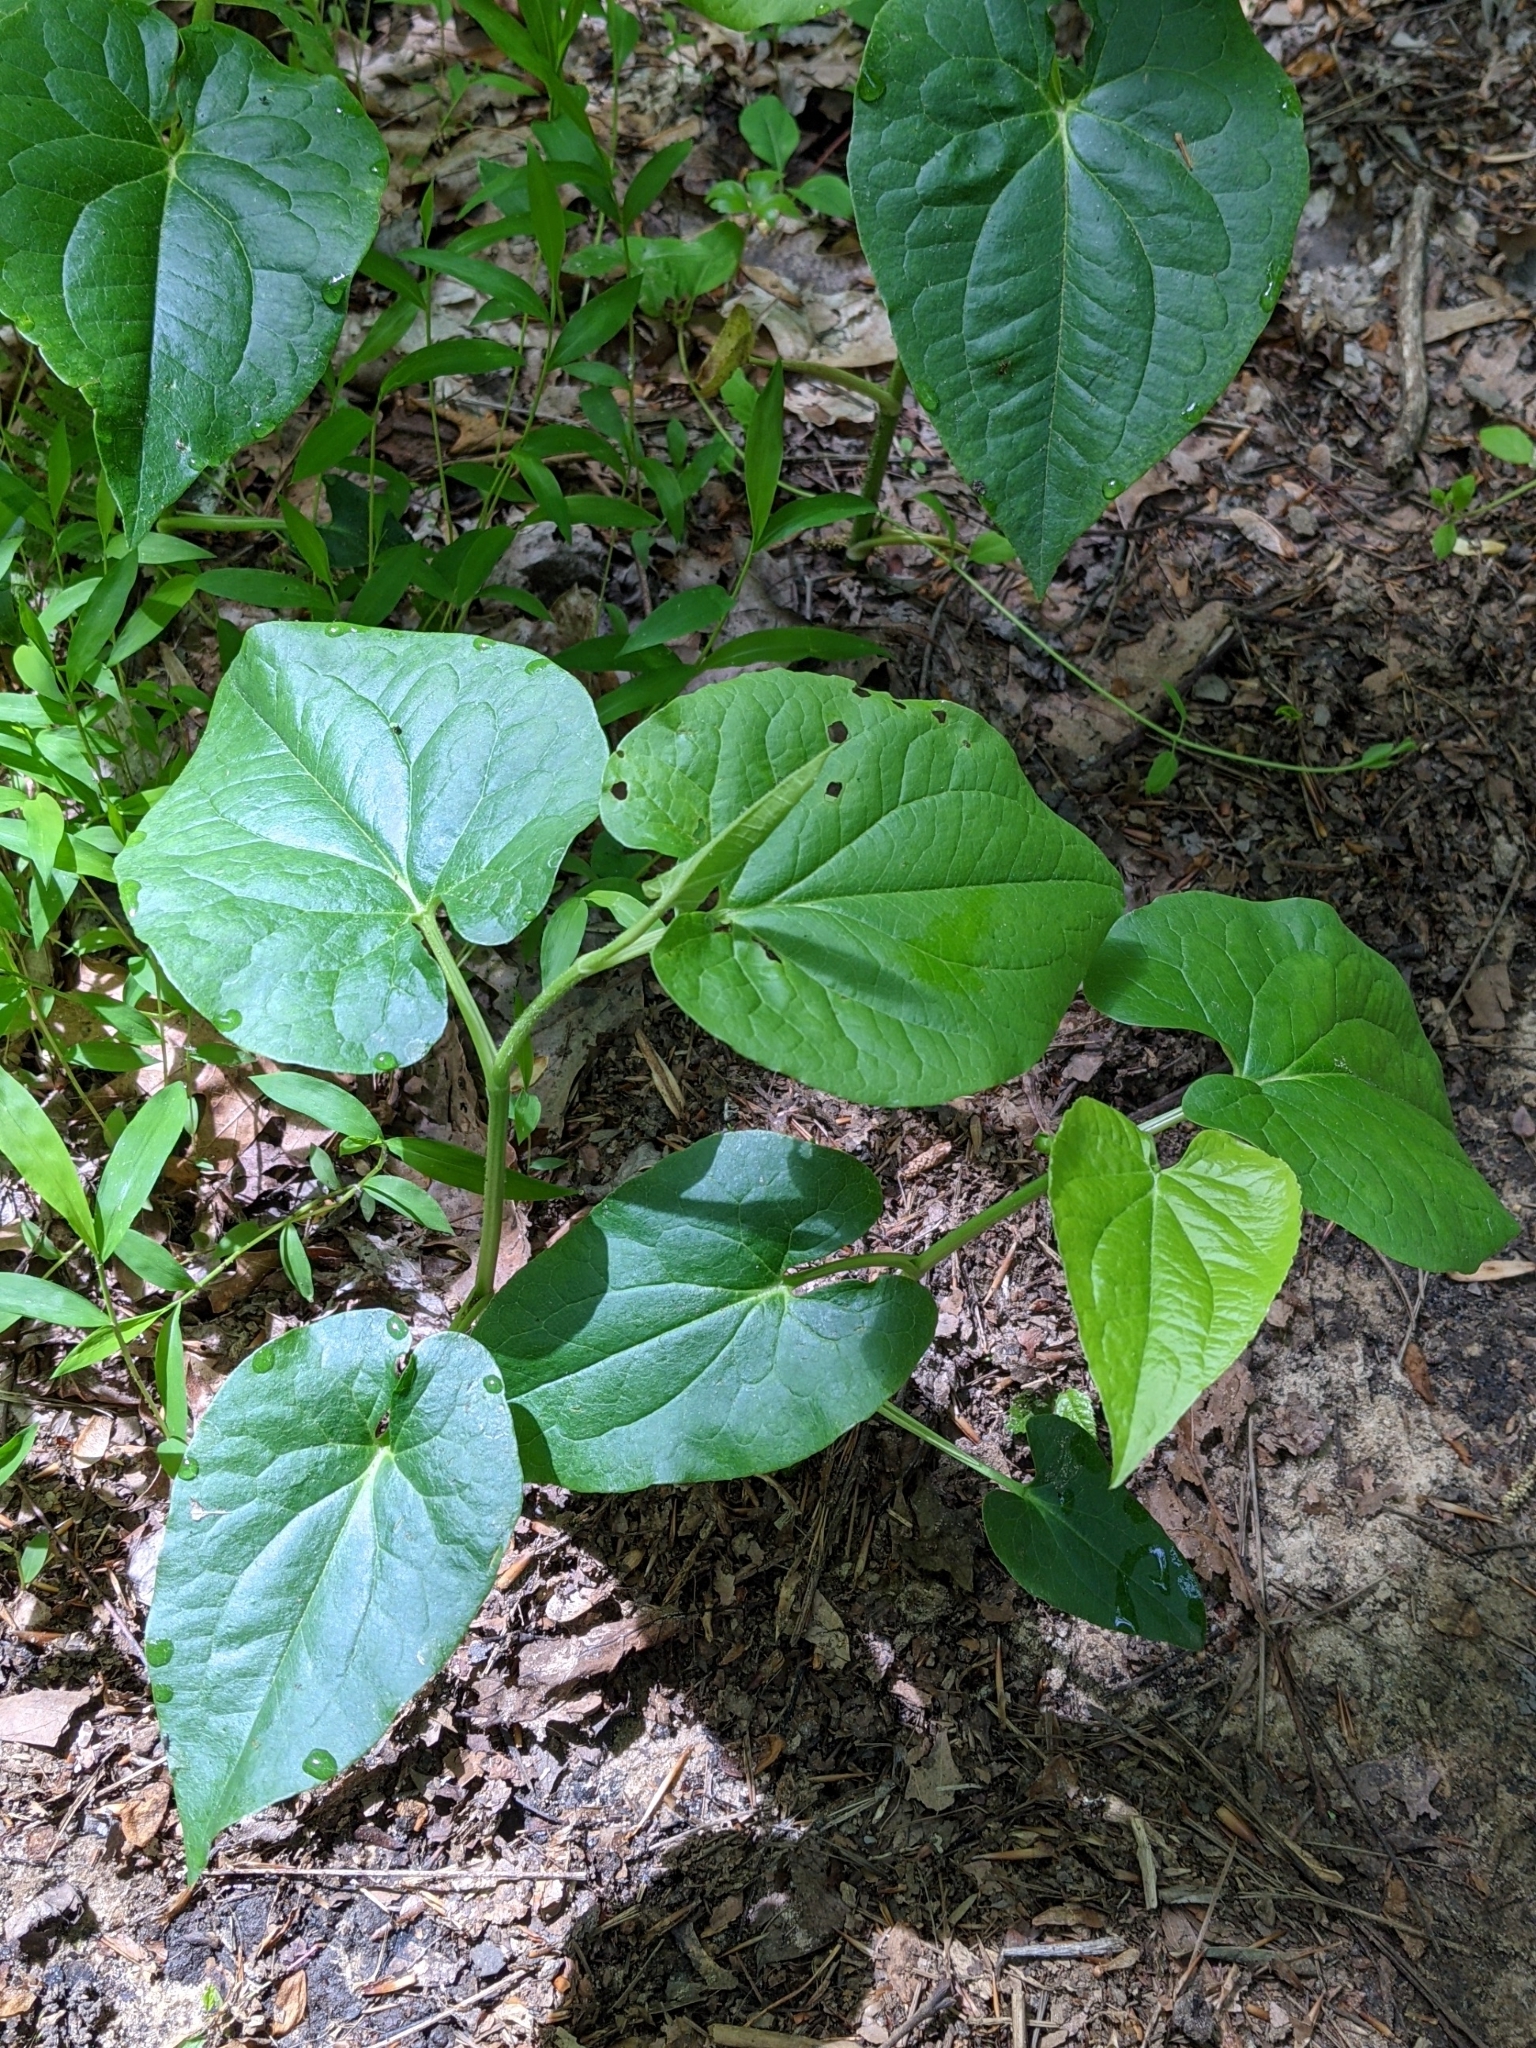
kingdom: Plantae
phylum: Tracheophyta
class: Magnoliopsida
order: Piperales
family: Saururaceae
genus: Saururus
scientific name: Saururus cernuus
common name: Lizard's-tail
